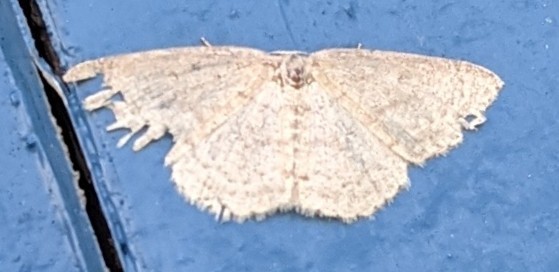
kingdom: Animalia
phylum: Arthropoda
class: Insecta
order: Lepidoptera
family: Geometridae
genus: Cyclophora
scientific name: Cyclophora pendulinaria
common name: Sweet fern geometer
